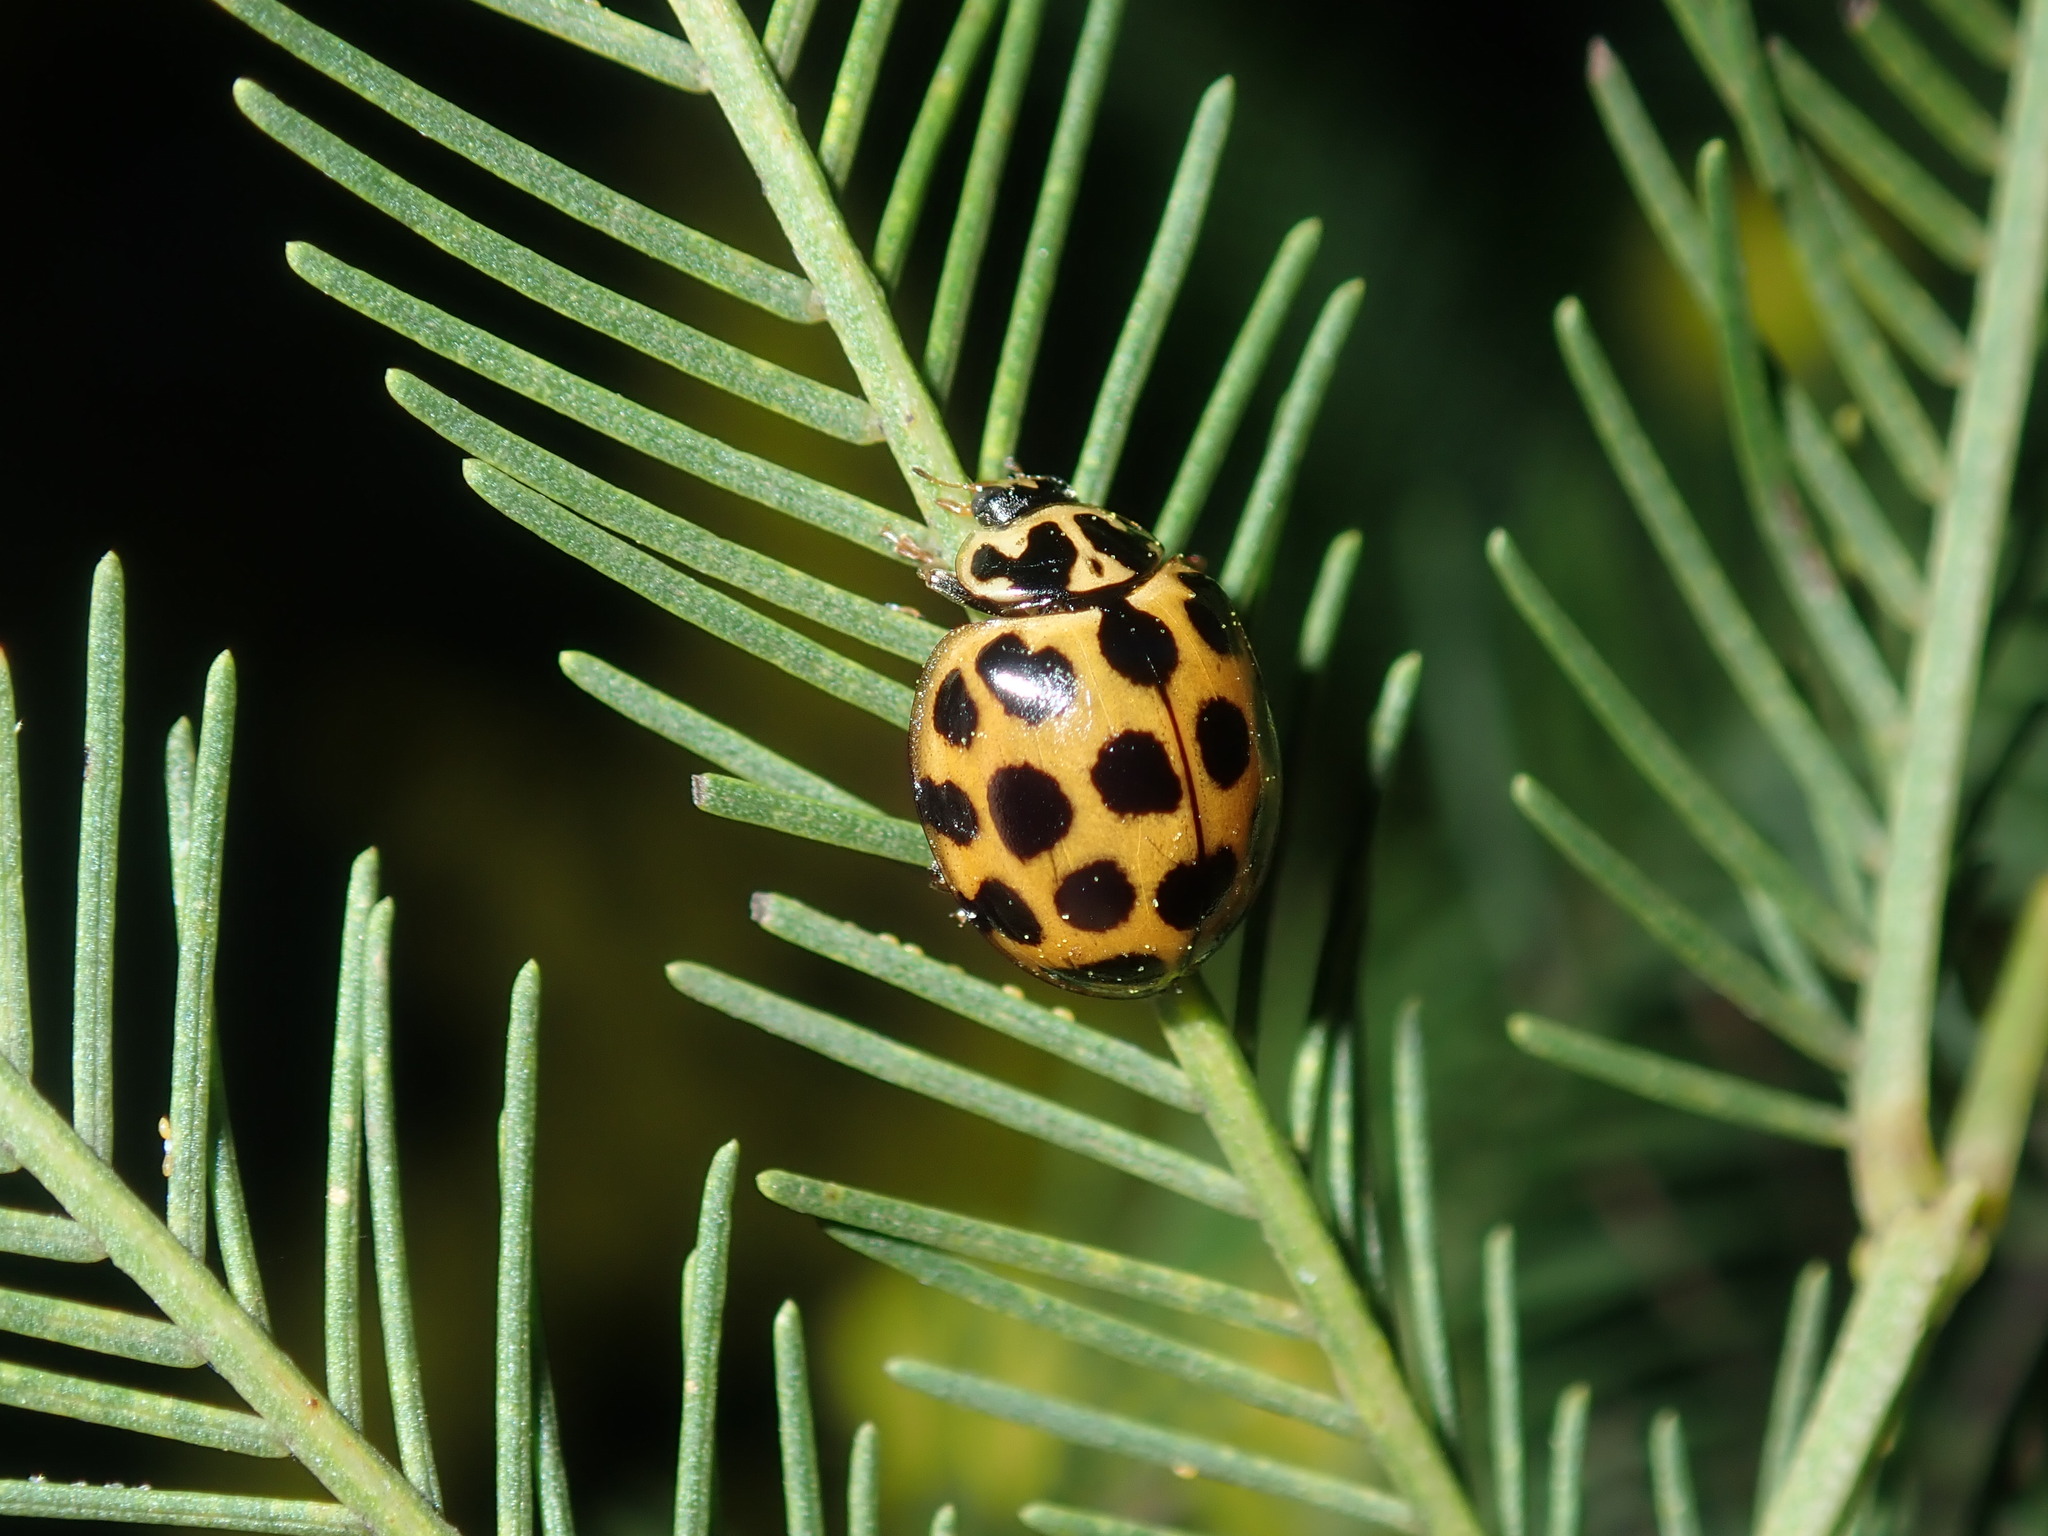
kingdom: Animalia
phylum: Arthropoda
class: Insecta
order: Coleoptera
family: Coccinellidae
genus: Harmonia
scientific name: Harmonia conformis
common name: Common spotted ladybird beetle
